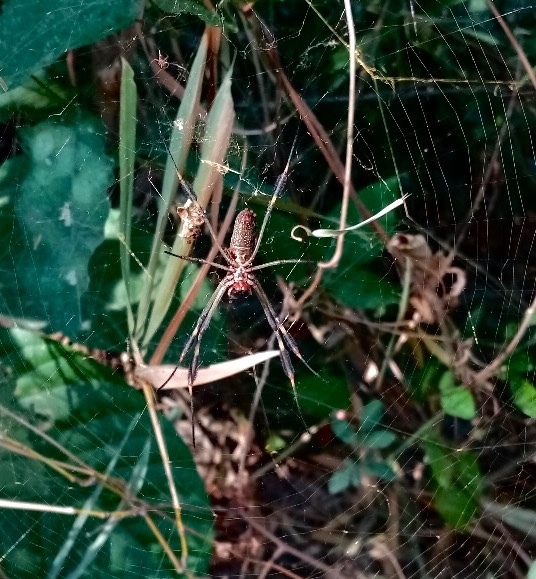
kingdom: Animalia
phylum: Arthropoda
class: Arachnida
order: Araneae
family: Araneidae
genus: Trichonephila
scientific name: Trichonephila clavipes
